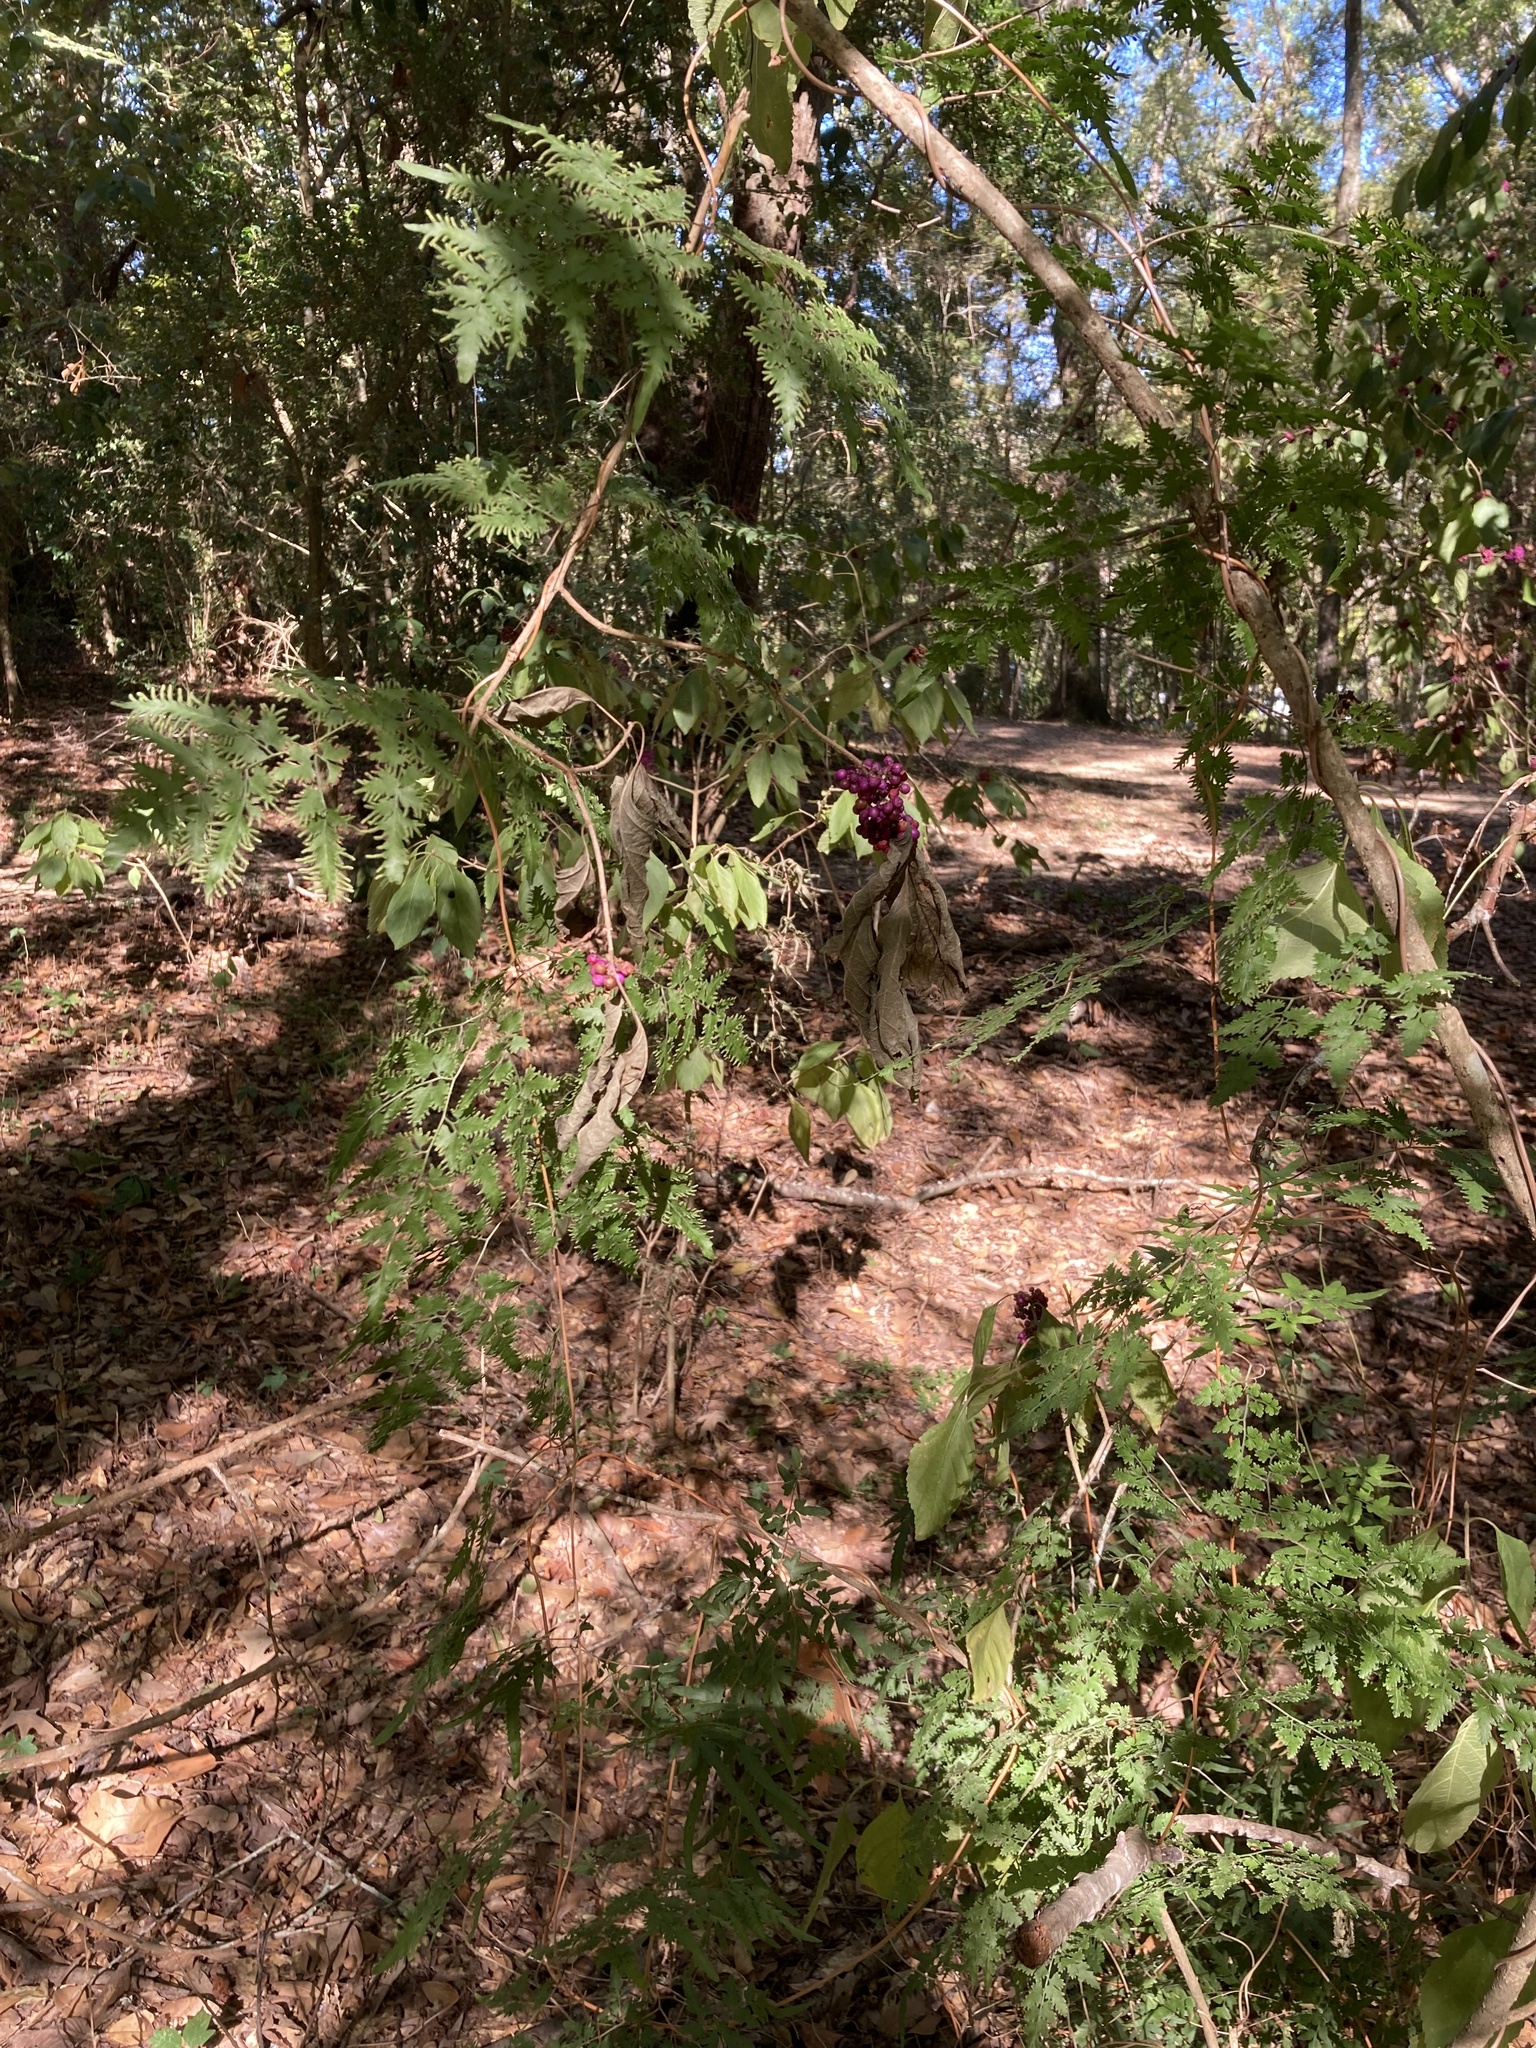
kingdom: Plantae
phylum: Tracheophyta
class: Magnoliopsida
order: Lamiales
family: Lamiaceae
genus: Callicarpa
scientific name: Callicarpa americana
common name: American beautyberry
